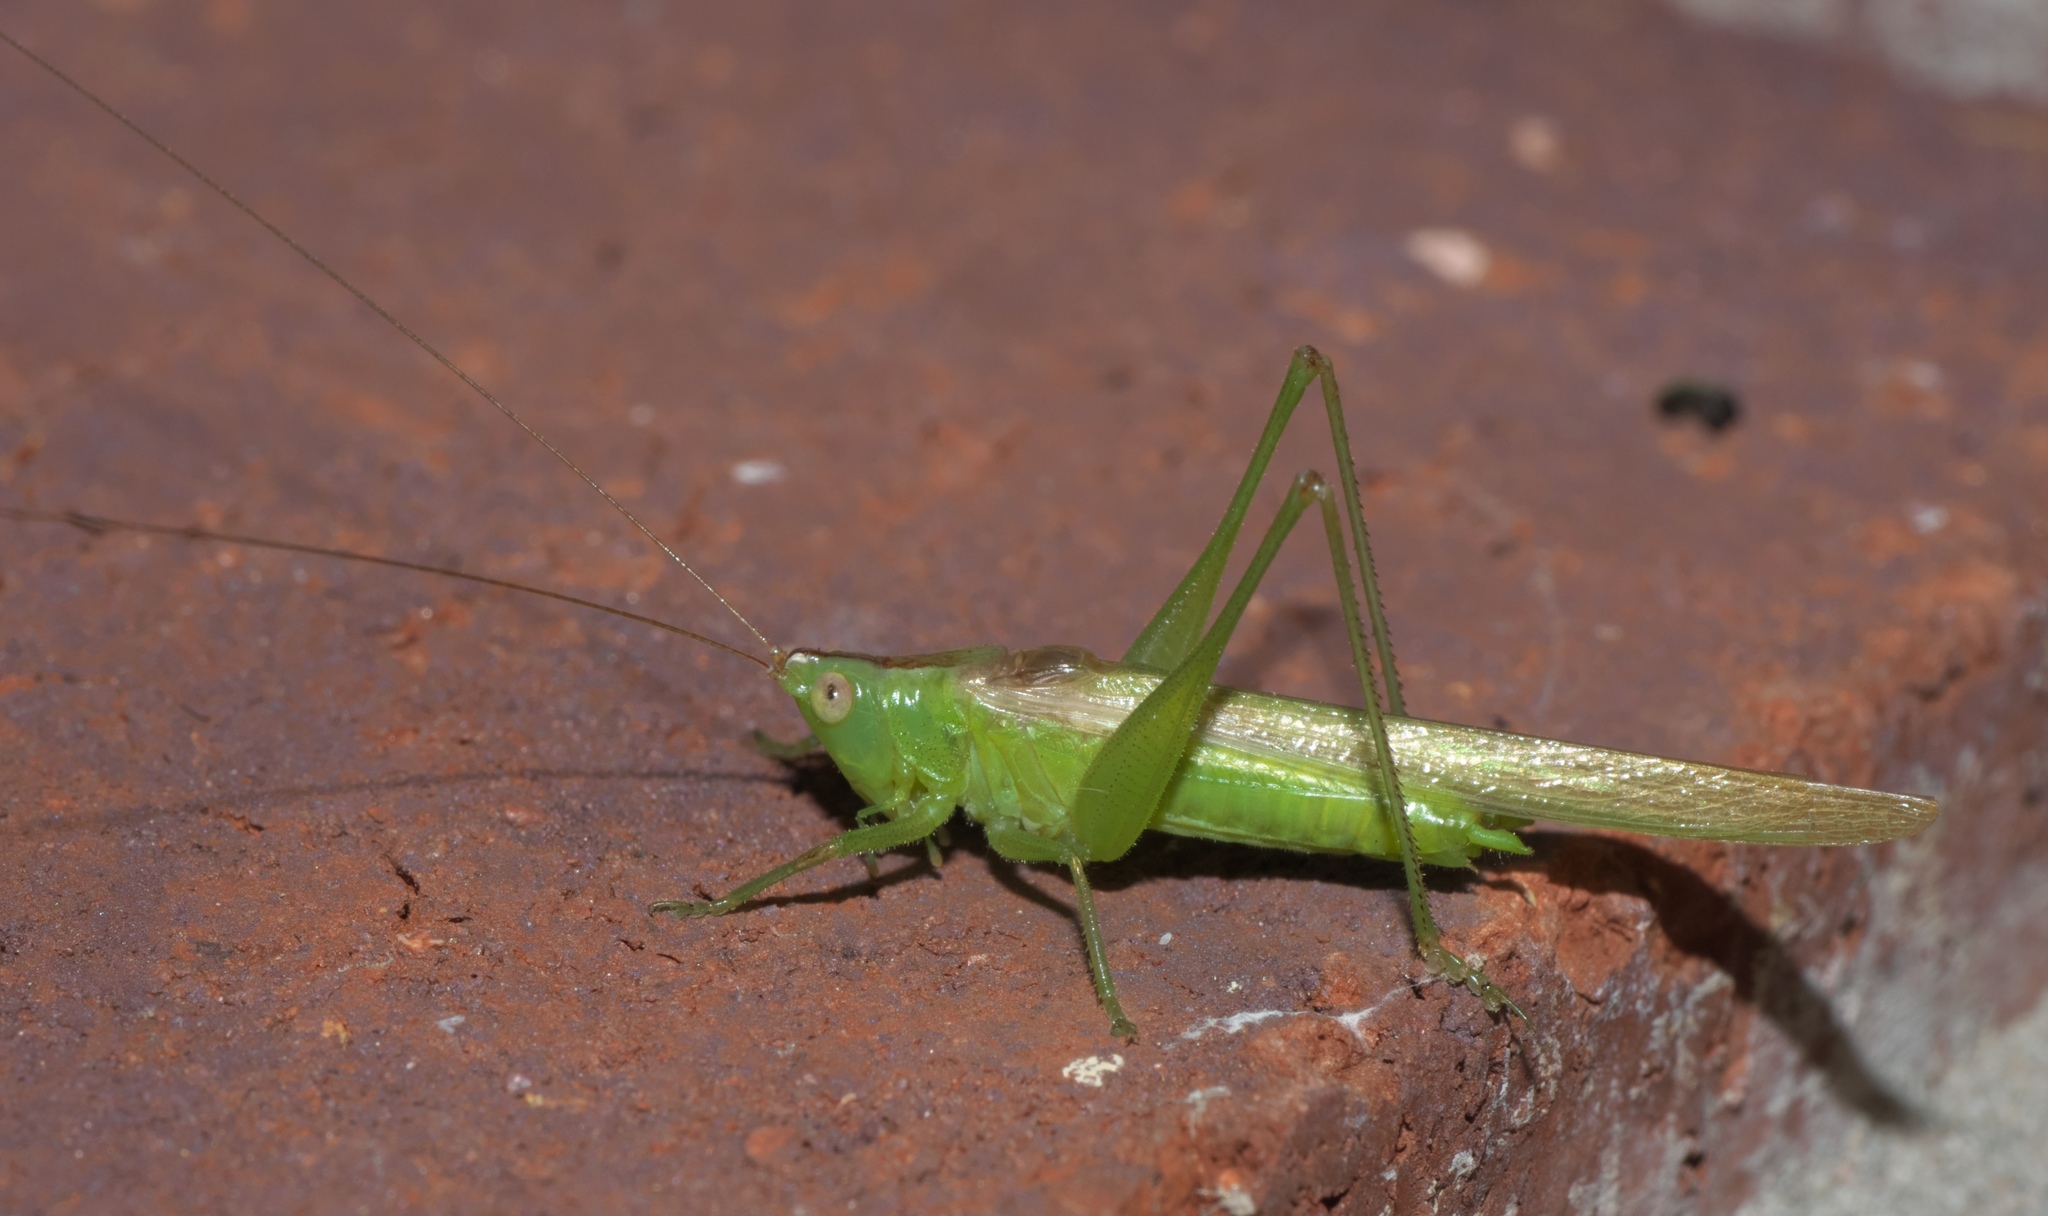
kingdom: Animalia
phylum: Arthropoda
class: Insecta
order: Orthoptera
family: Tettigoniidae
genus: Conocephalus
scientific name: Conocephalus fasciatus
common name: Slender meadow katydid
